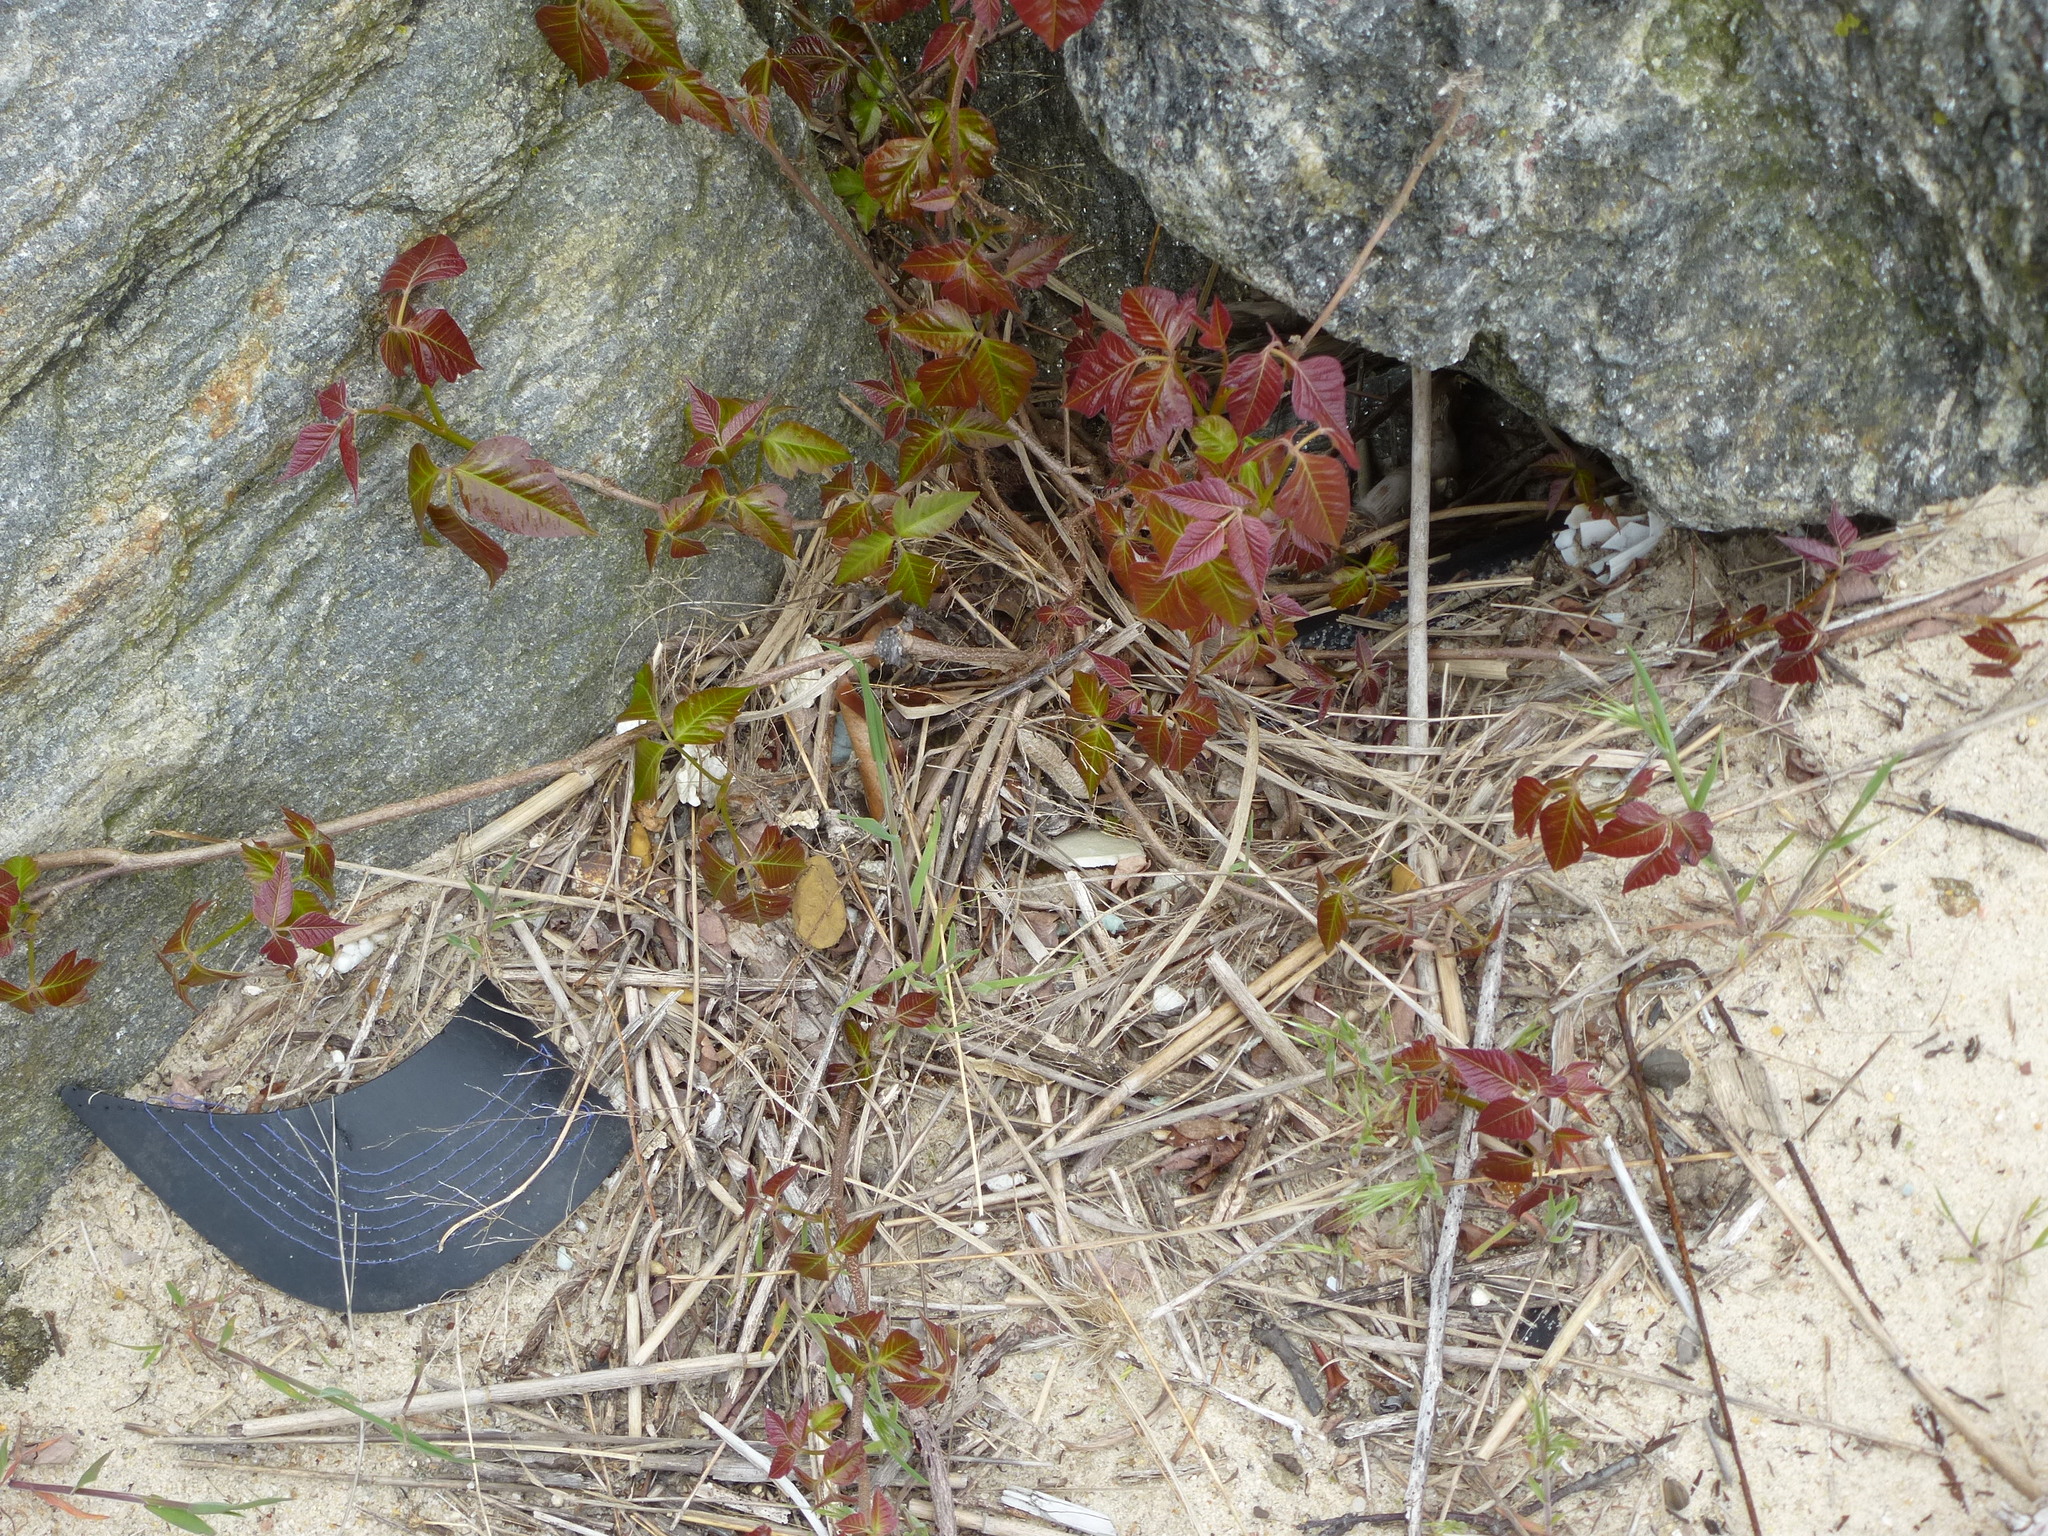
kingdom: Plantae
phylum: Tracheophyta
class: Magnoliopsida
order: Sapindales
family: Anacardiaceae
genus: Toxicodendron
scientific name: Toxicodendron radicans
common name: Poison ivy
